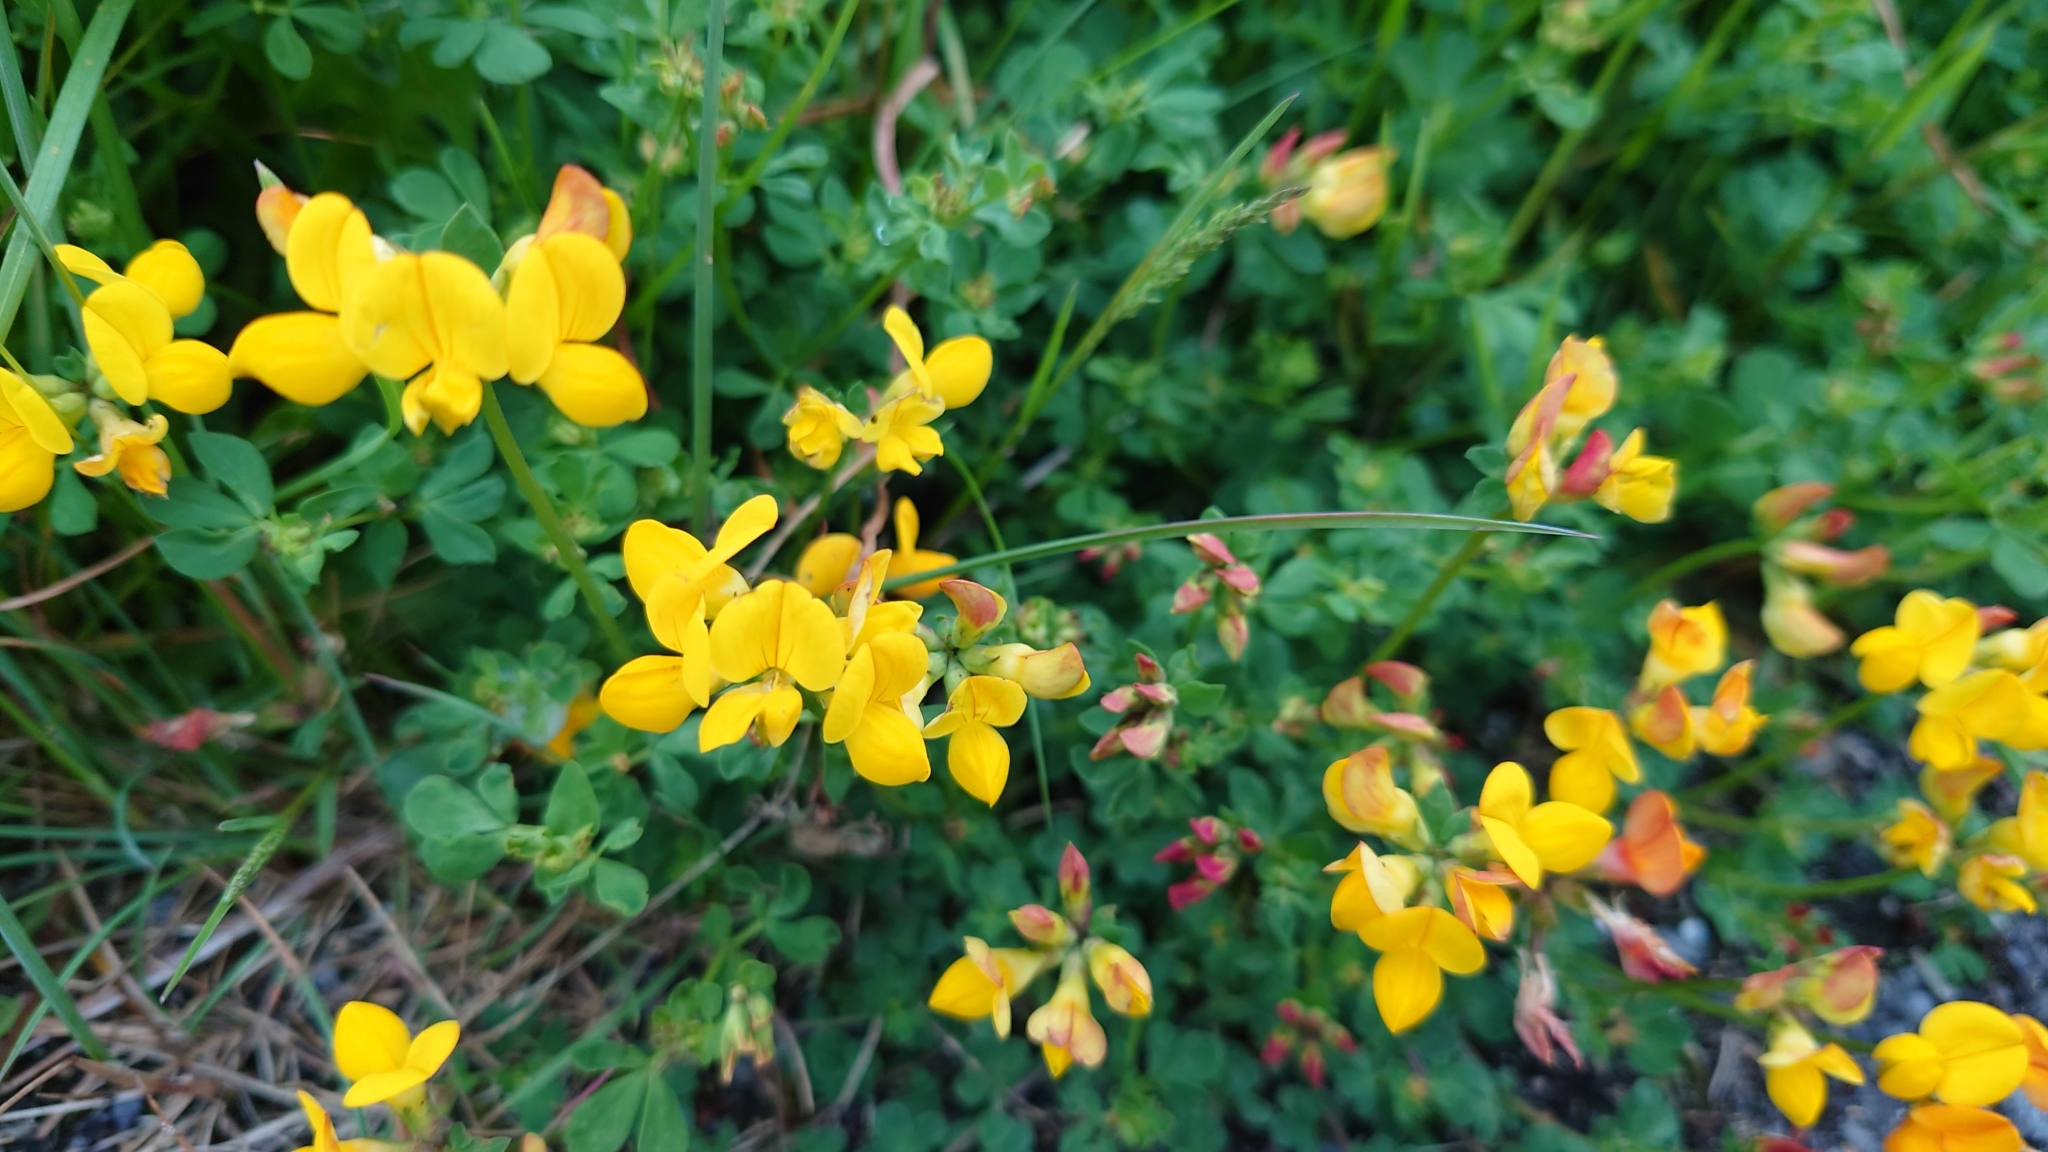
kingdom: Plantae
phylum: Tracheophyta
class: Magnoliopsida
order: Fabales
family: Fabaceae
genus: Lotus
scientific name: Lotus corniculatus
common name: Common bird's-foot-trefoil
